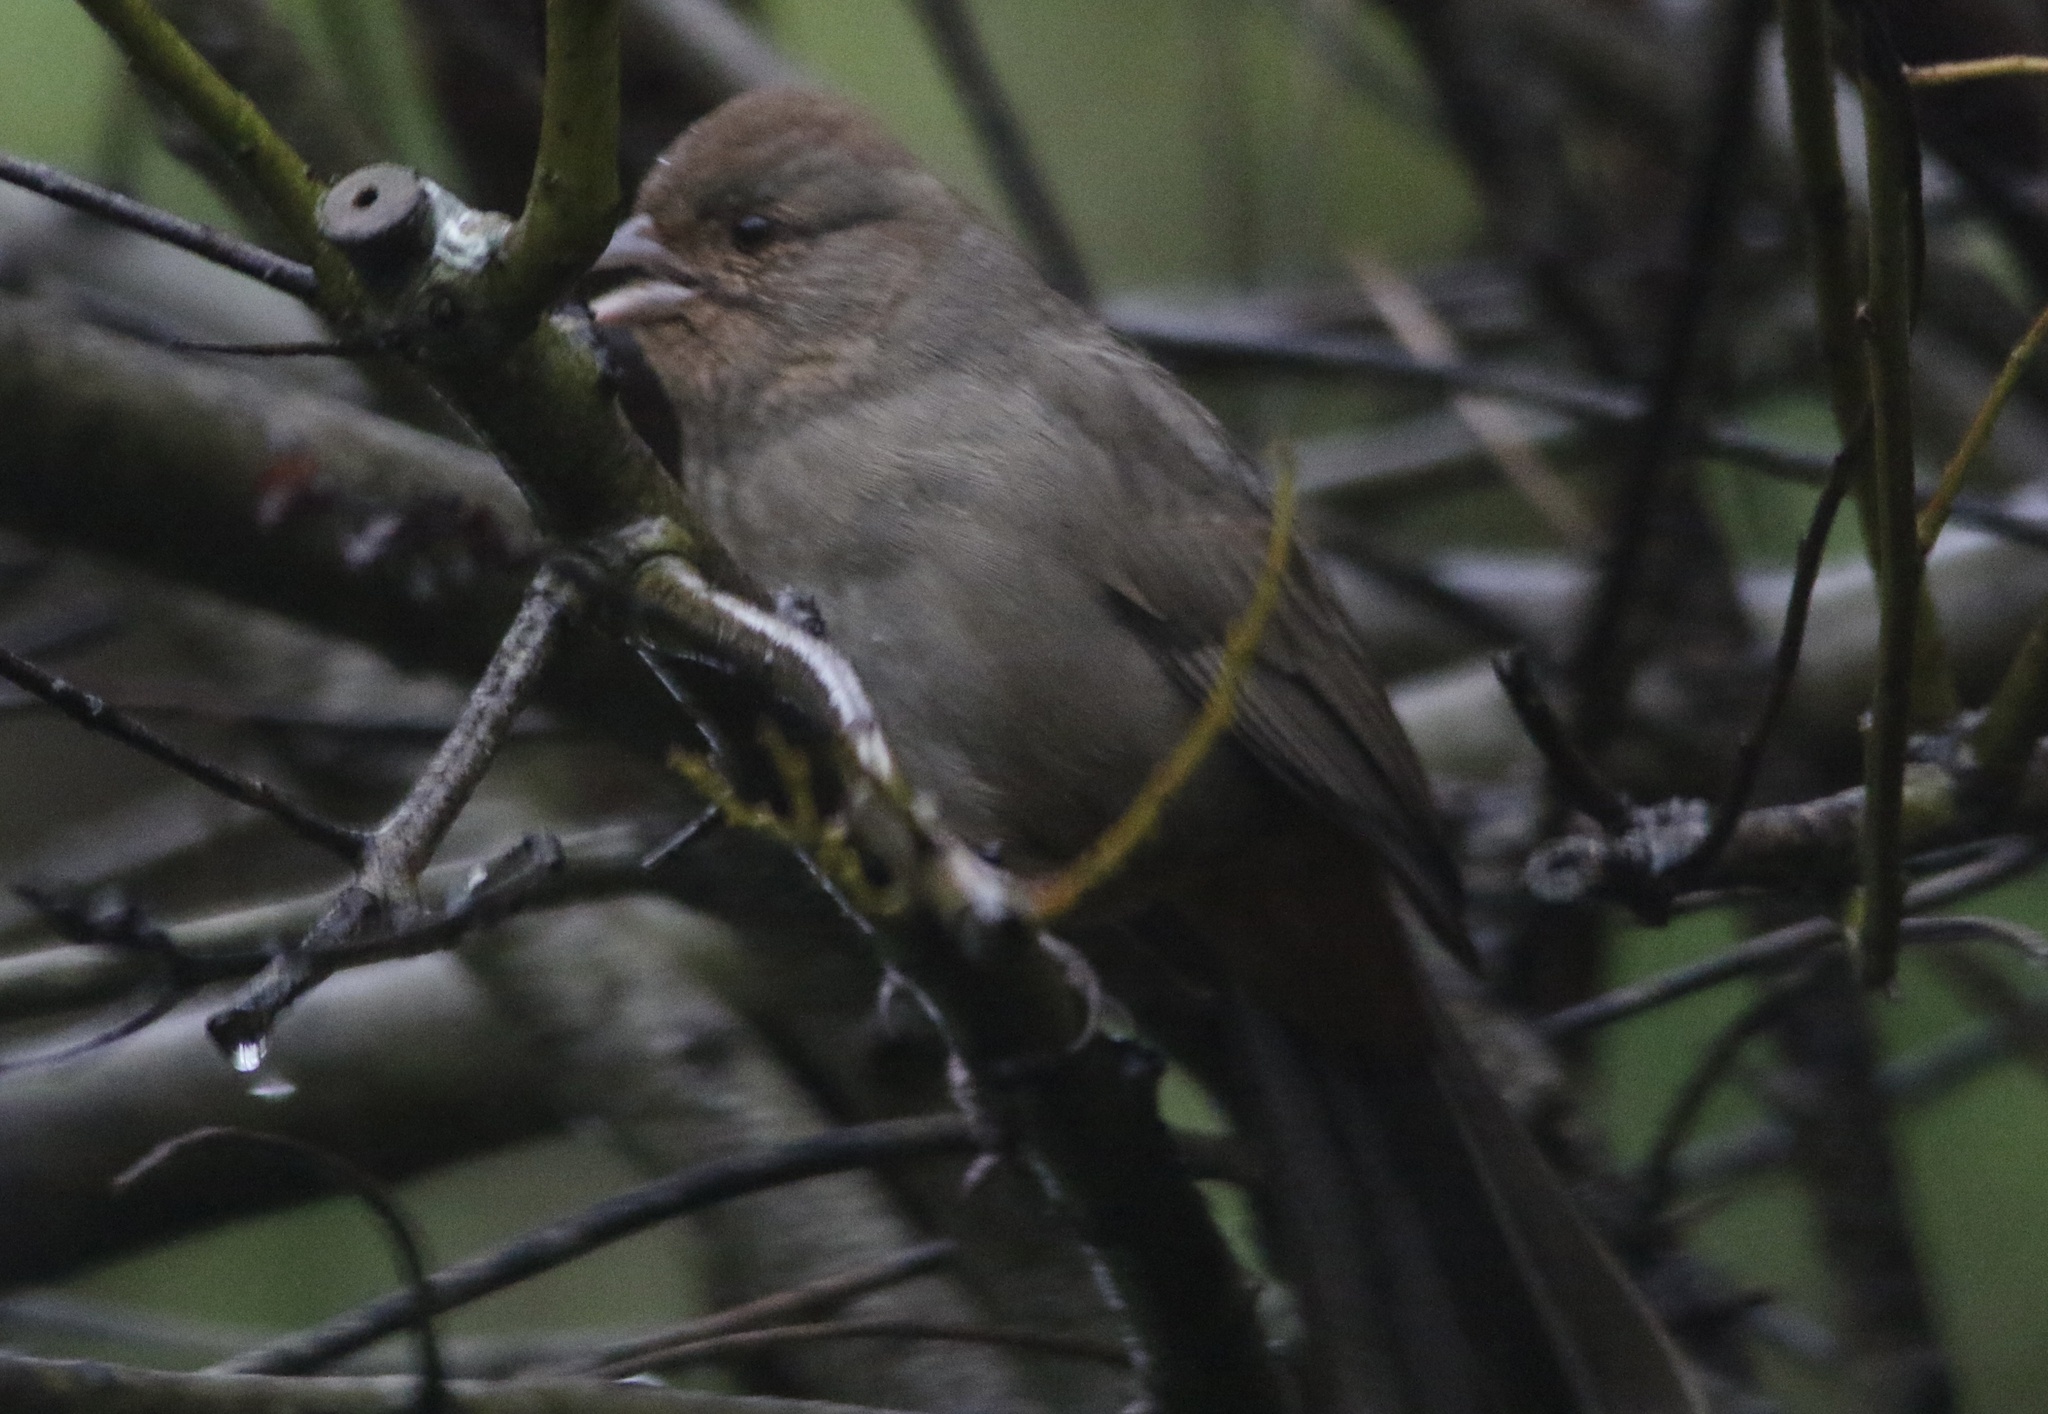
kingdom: Animalia
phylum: Chordata
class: Aves
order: Passeriformes
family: Passerellidae
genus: Melozone
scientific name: Melozone crissalis
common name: California towhee
